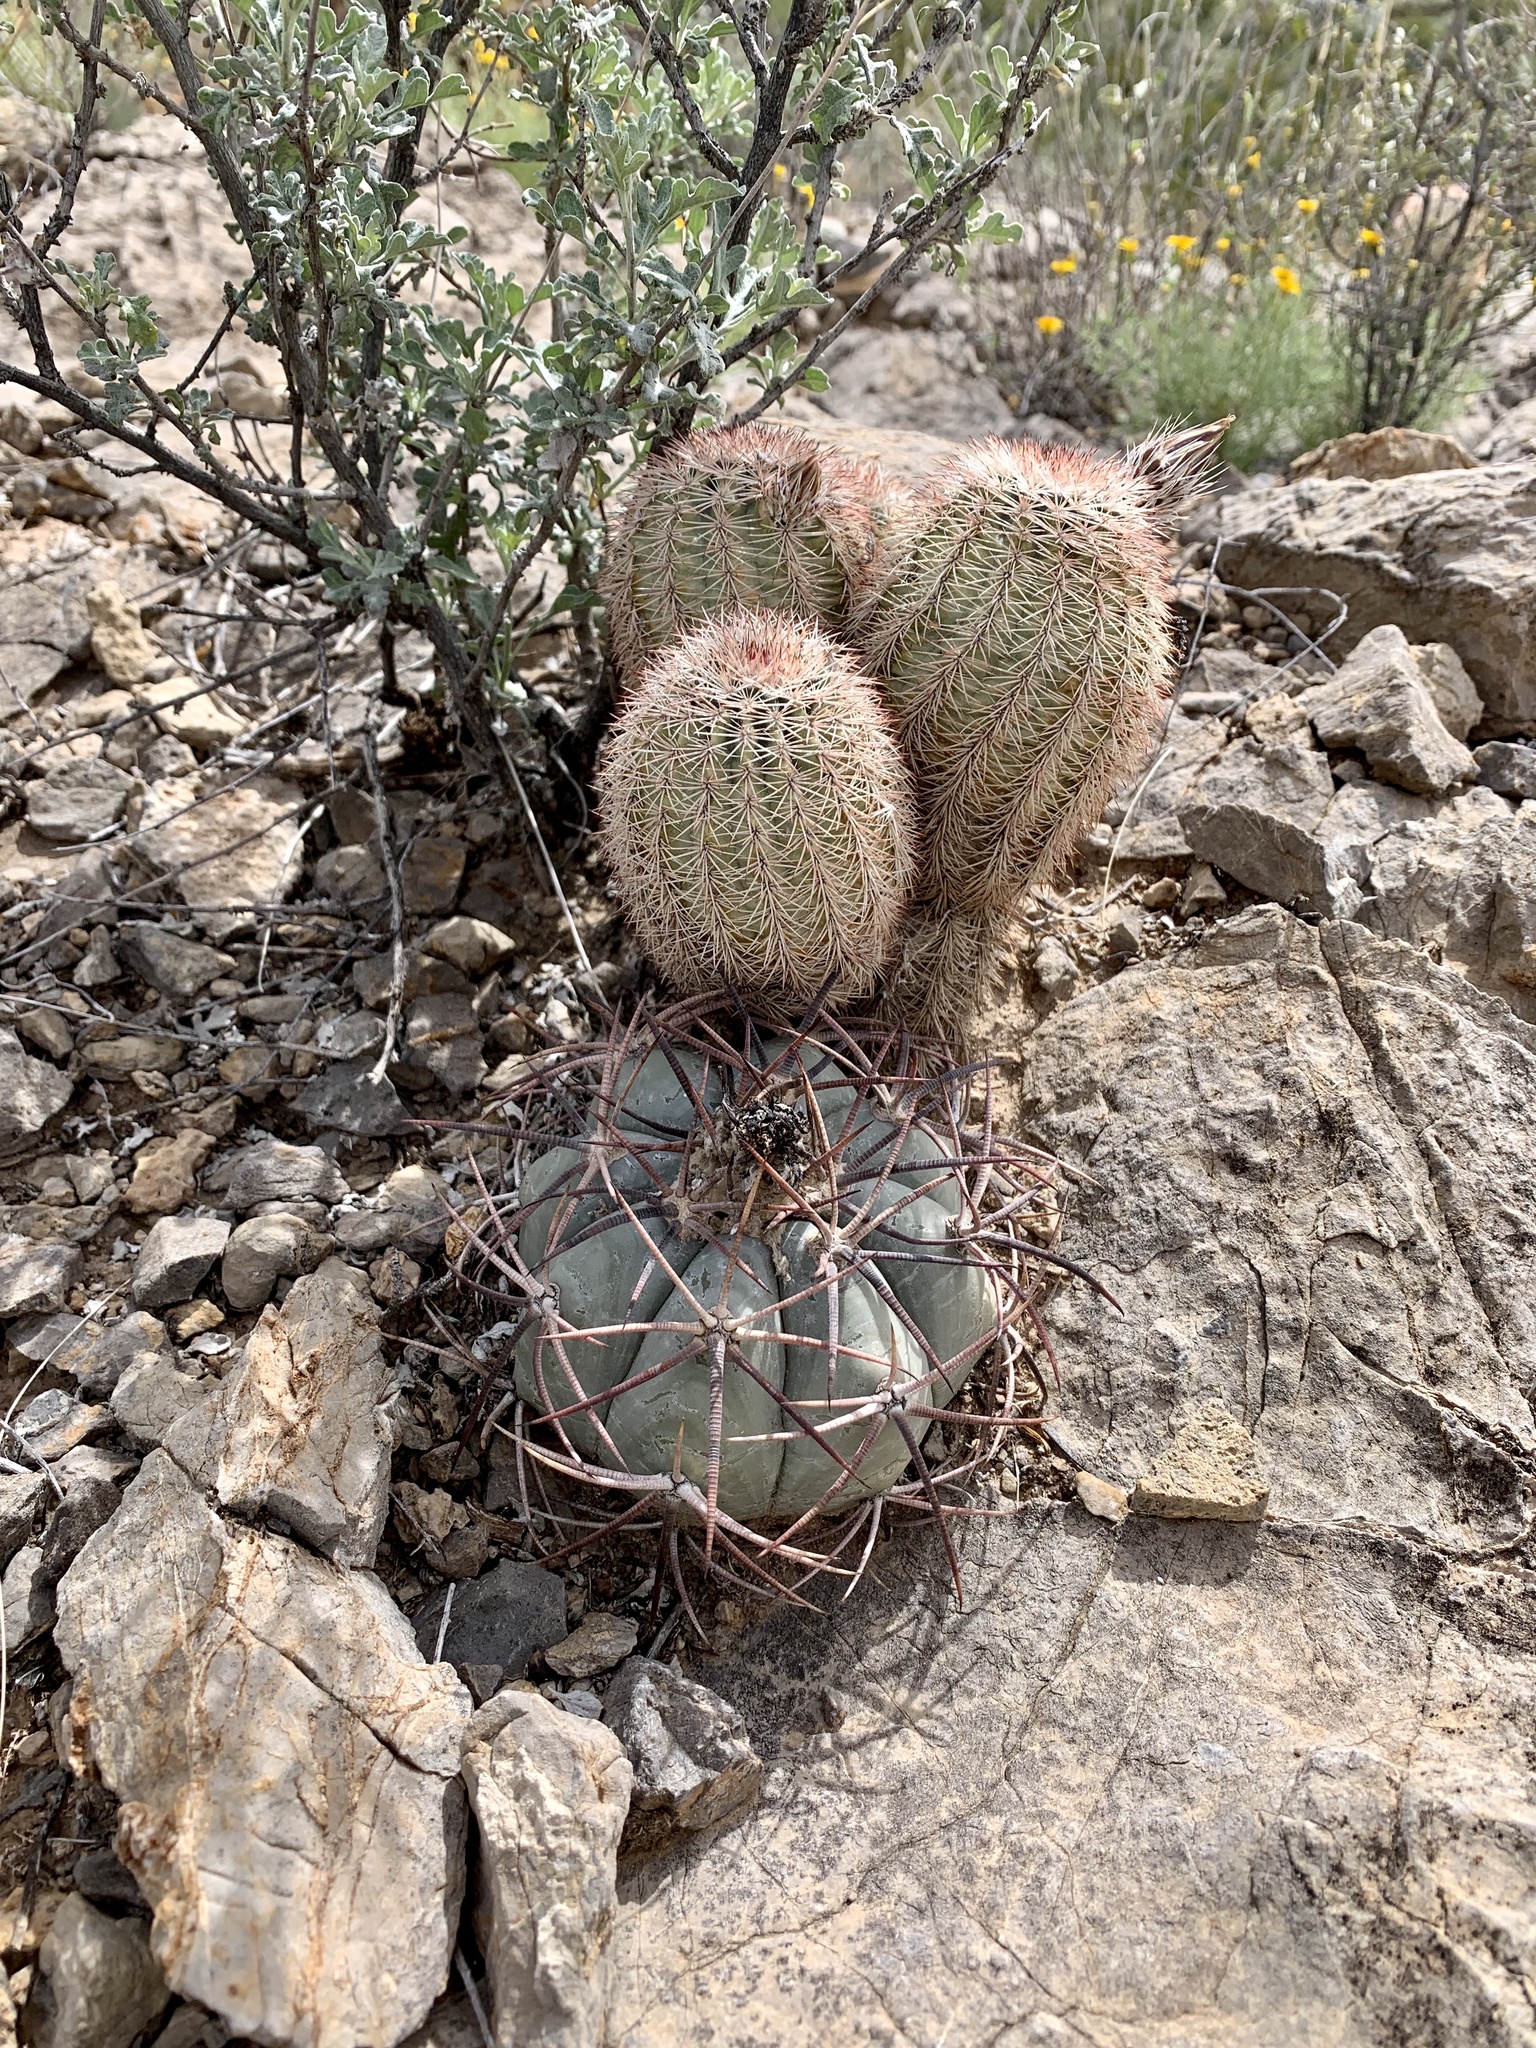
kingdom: Plantae
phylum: Tracheophyta
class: Magnoliopsida
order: Caryophyllales
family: Cactaceae
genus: Echinocereus
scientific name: Echinocereus dasyacanthus
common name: Spiny hedgehog cactus
